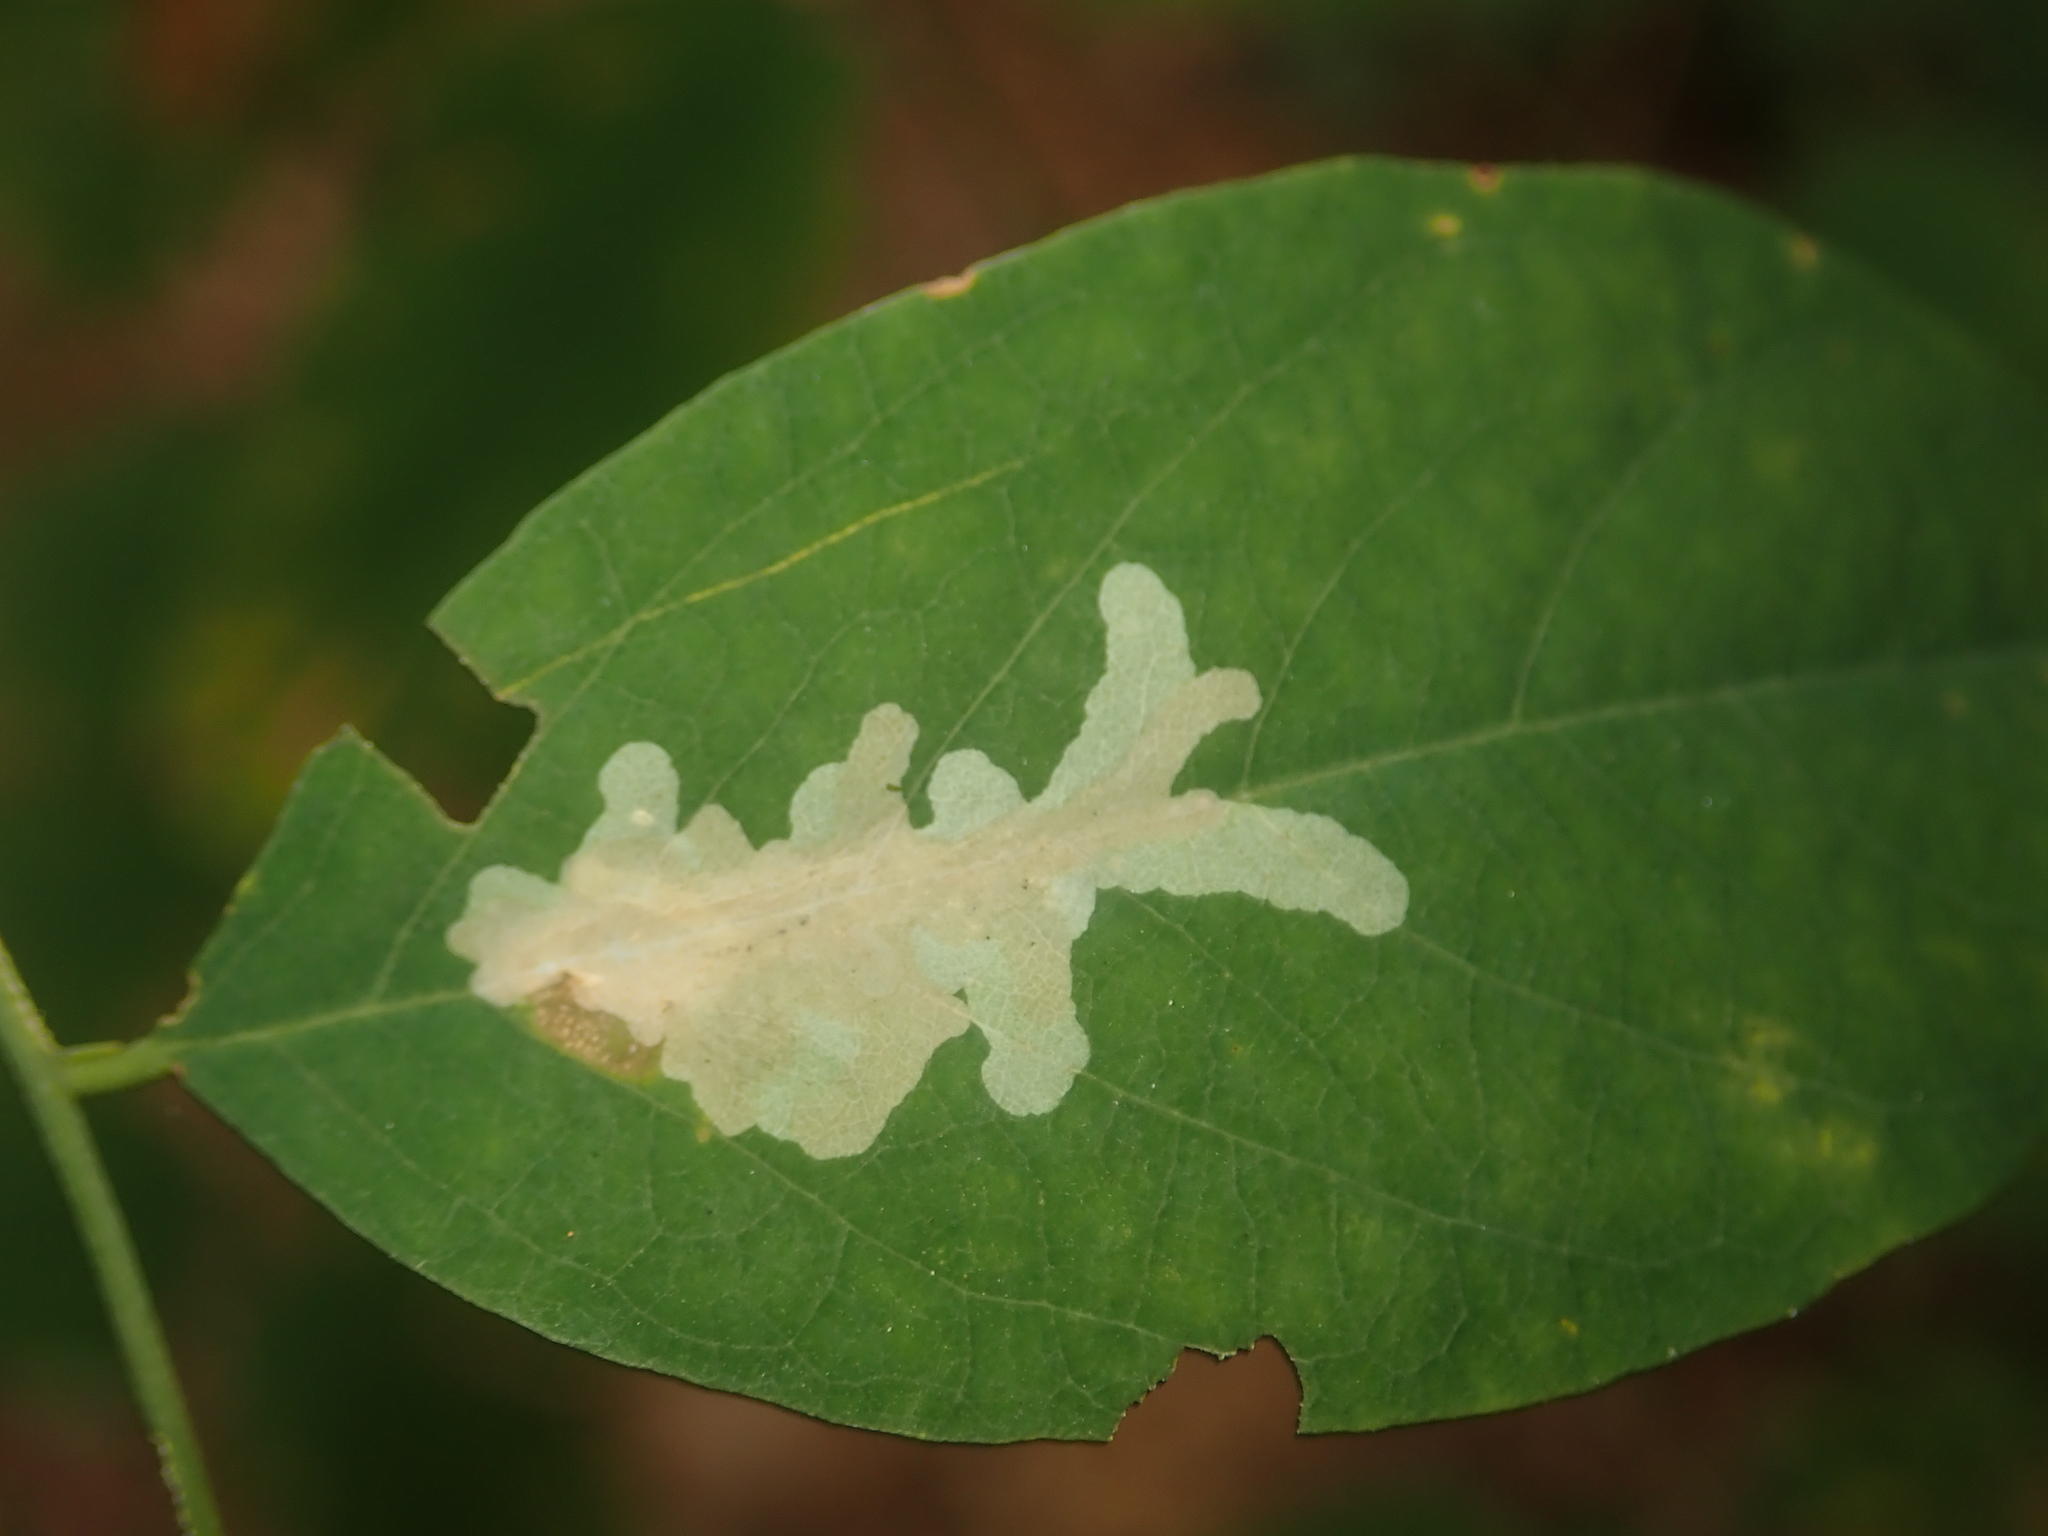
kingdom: Animalia
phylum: Arthropoda
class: Insecta
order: Lepidoptera
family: Gracillariidae
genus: Parectopa
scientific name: Parectopa robiniella
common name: Locust digitate leafminer
